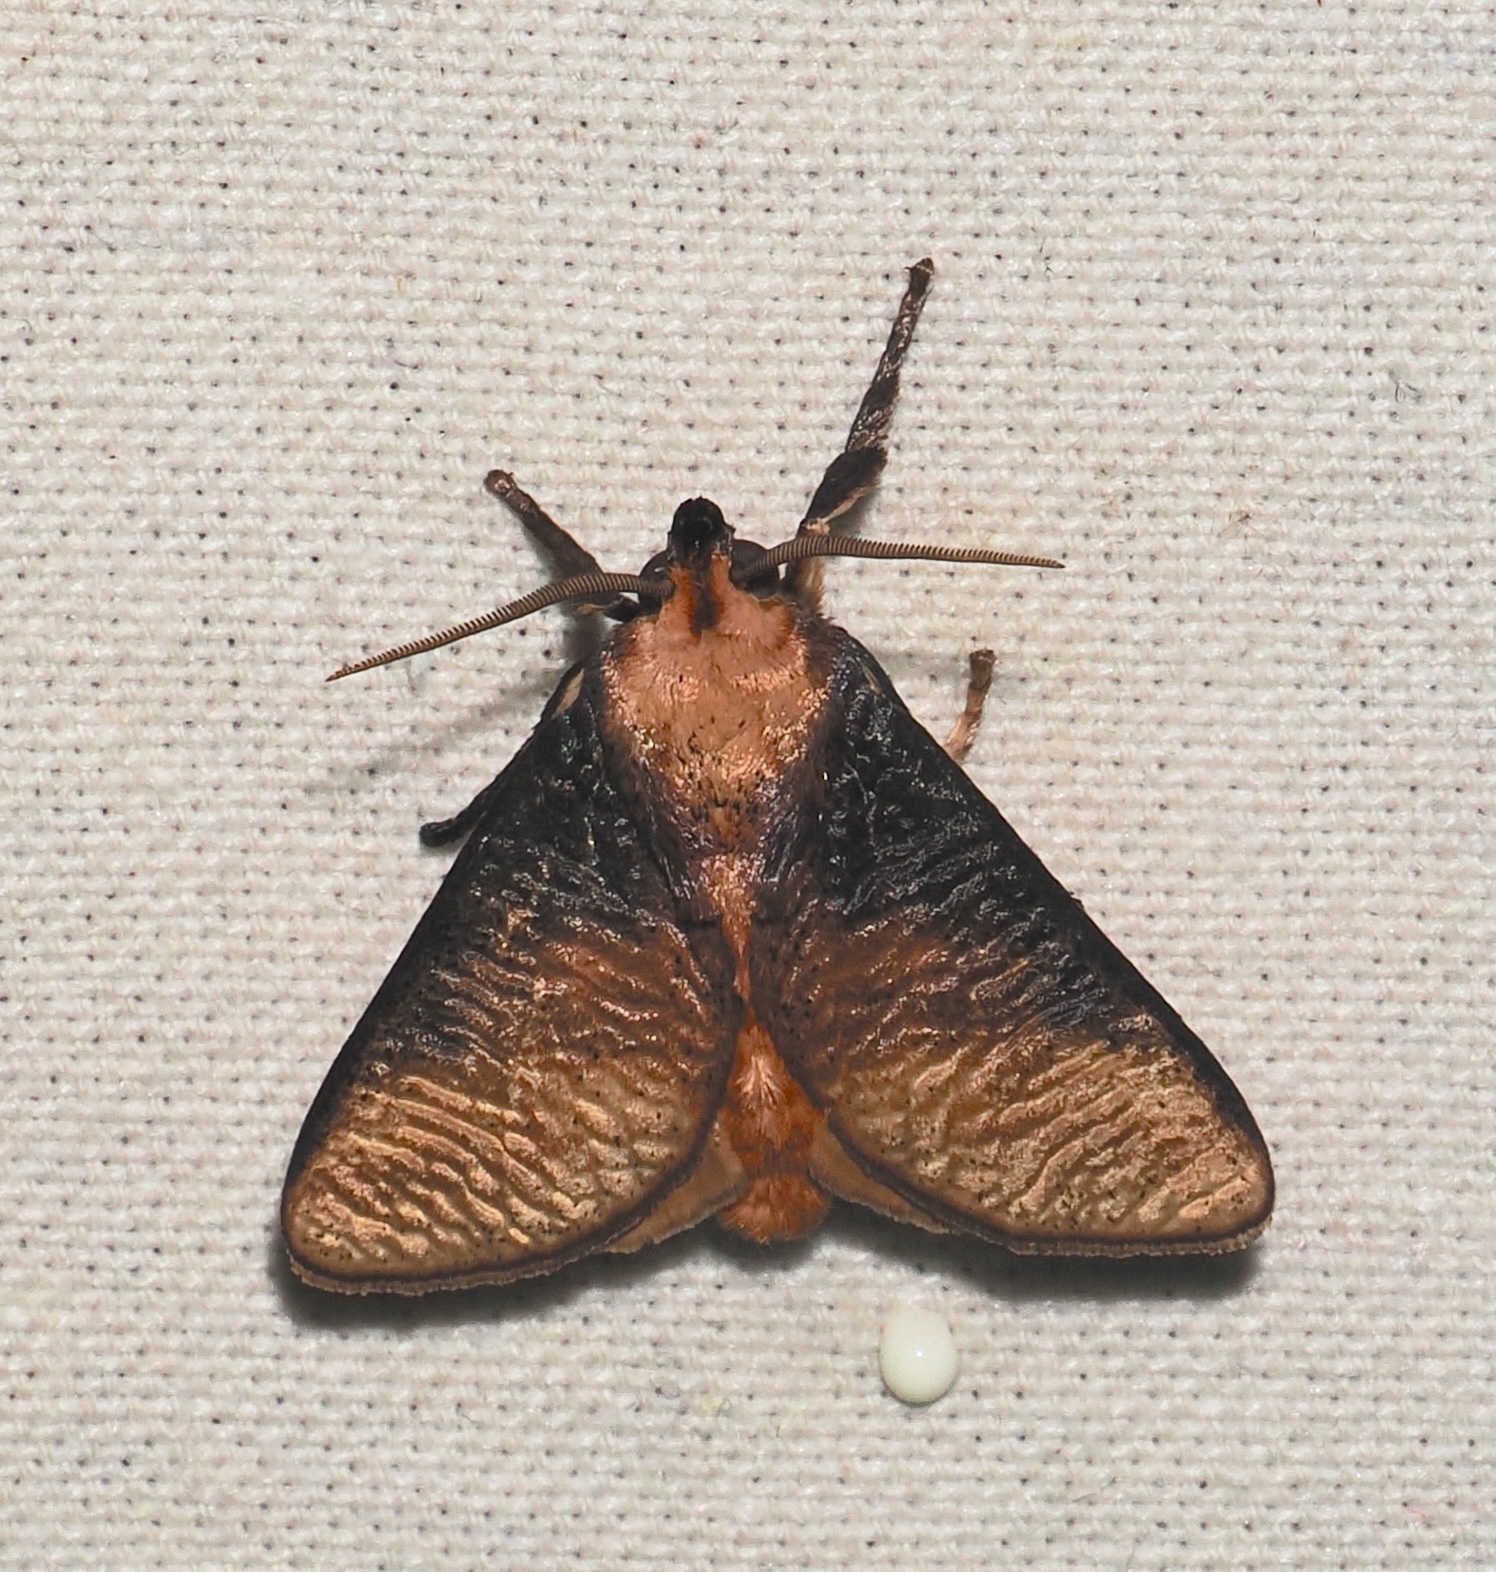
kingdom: Animalia
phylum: Arthropoda
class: Insecta
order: Lepidoptera
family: Limacodidae
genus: Ulamia
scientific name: Ulamia sericea
